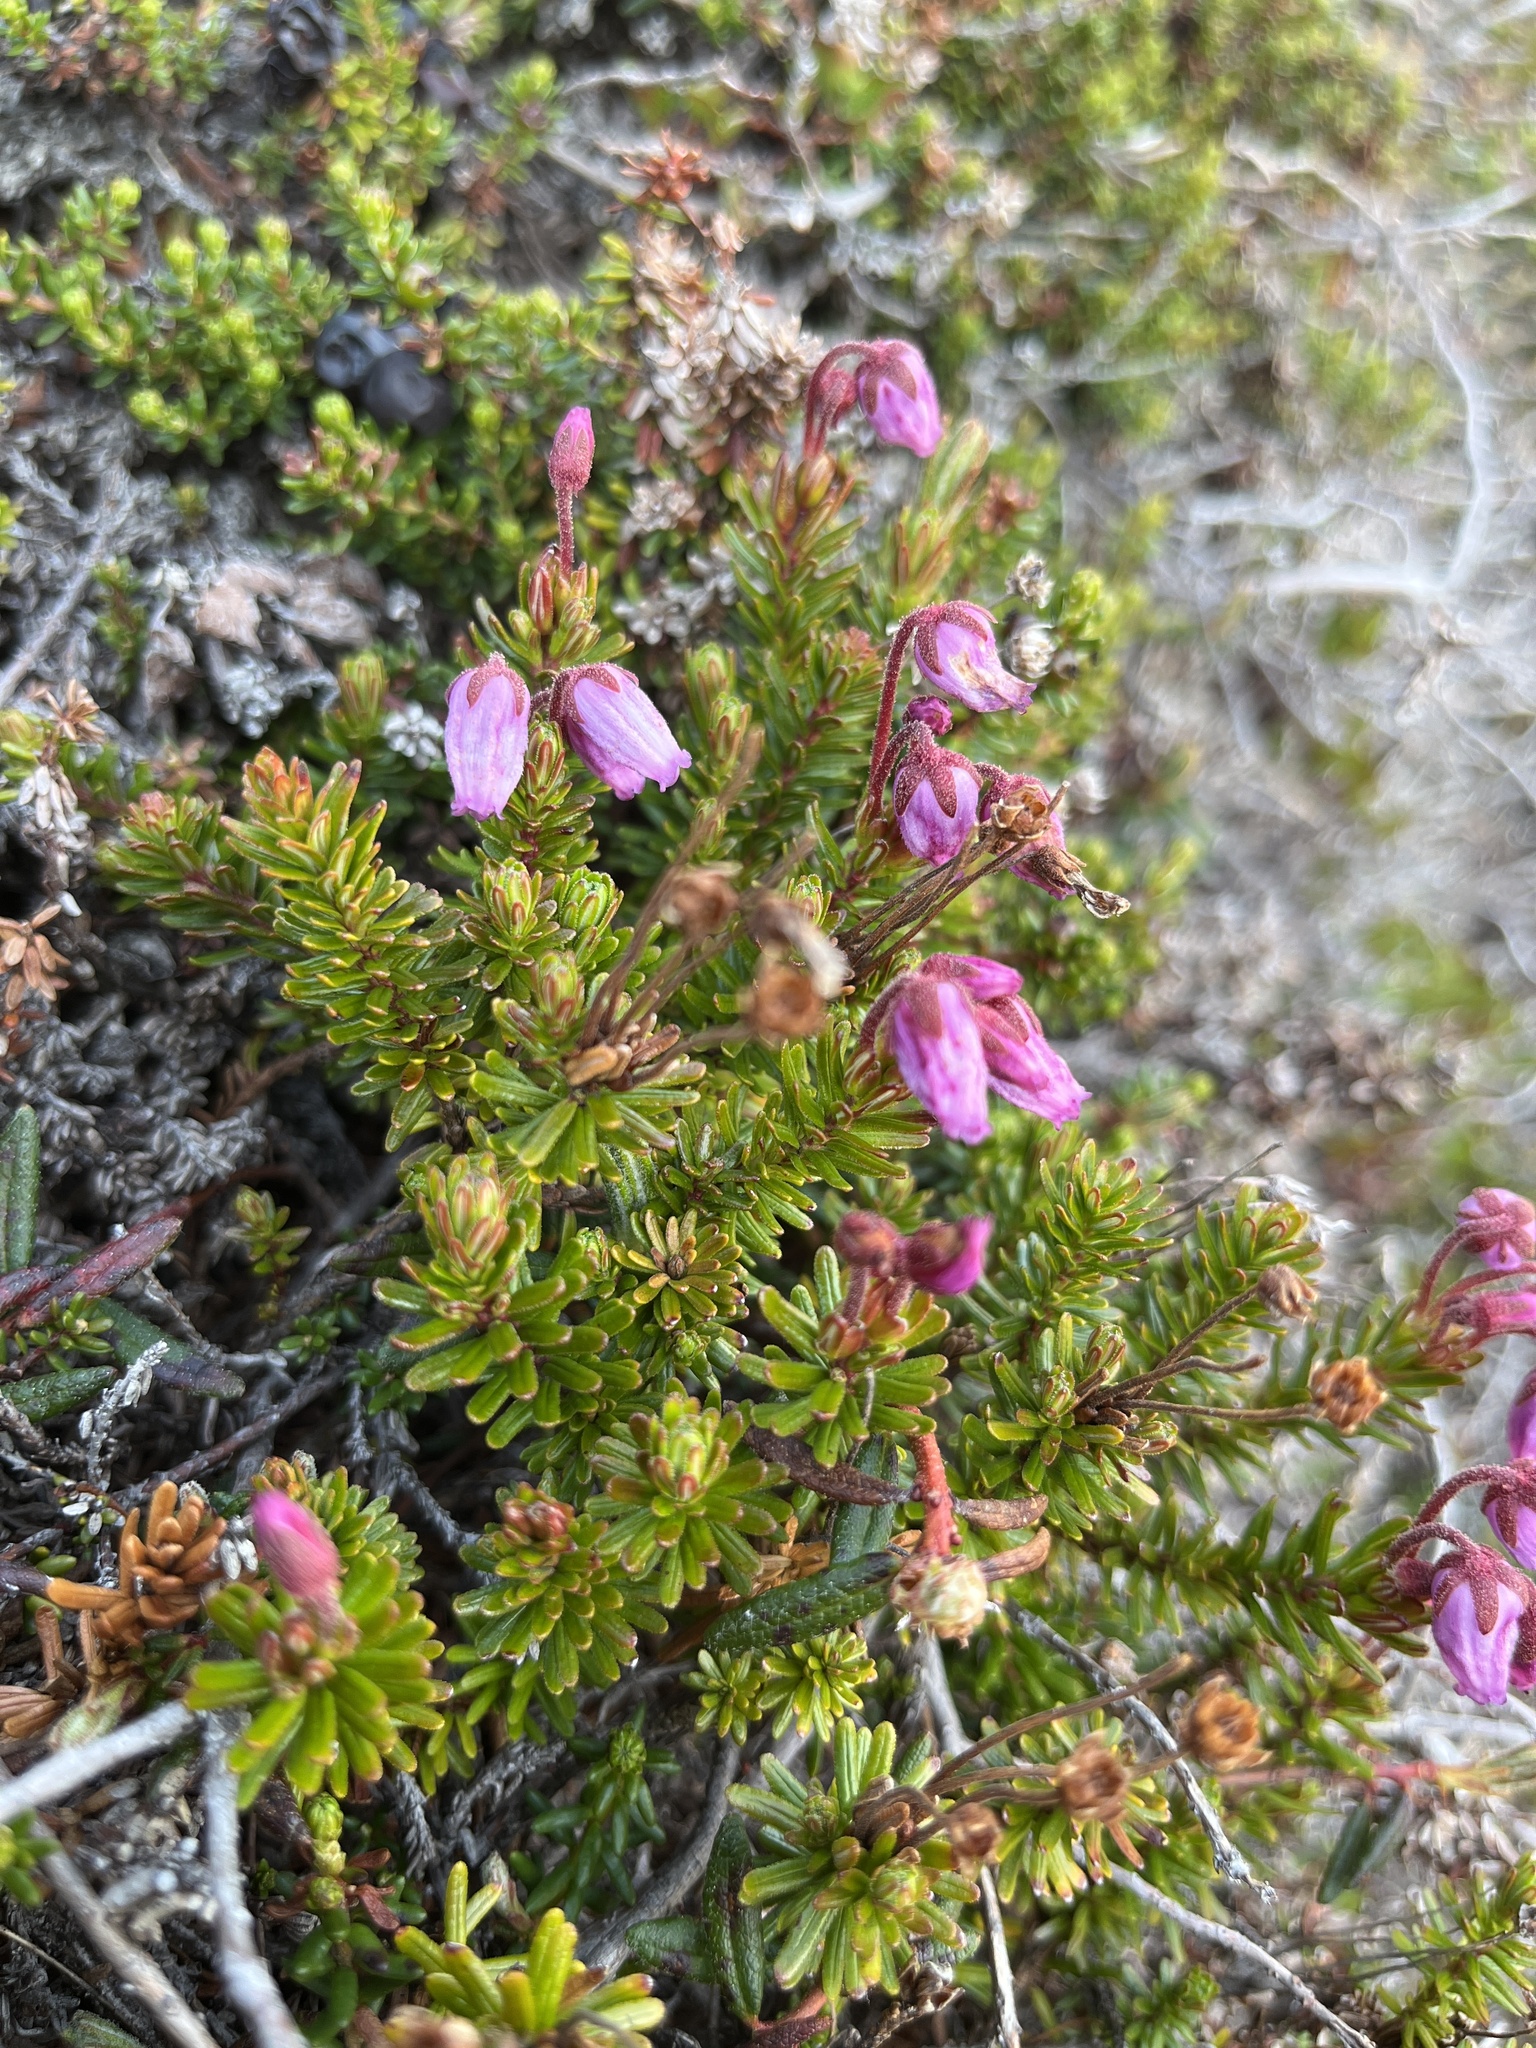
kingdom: Plantae
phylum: Tracheophyta
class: Magnoliopsida
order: Ericales
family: Ericaceae
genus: Phyllodoce
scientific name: Phyllodoce caerulea
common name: Blue heath
